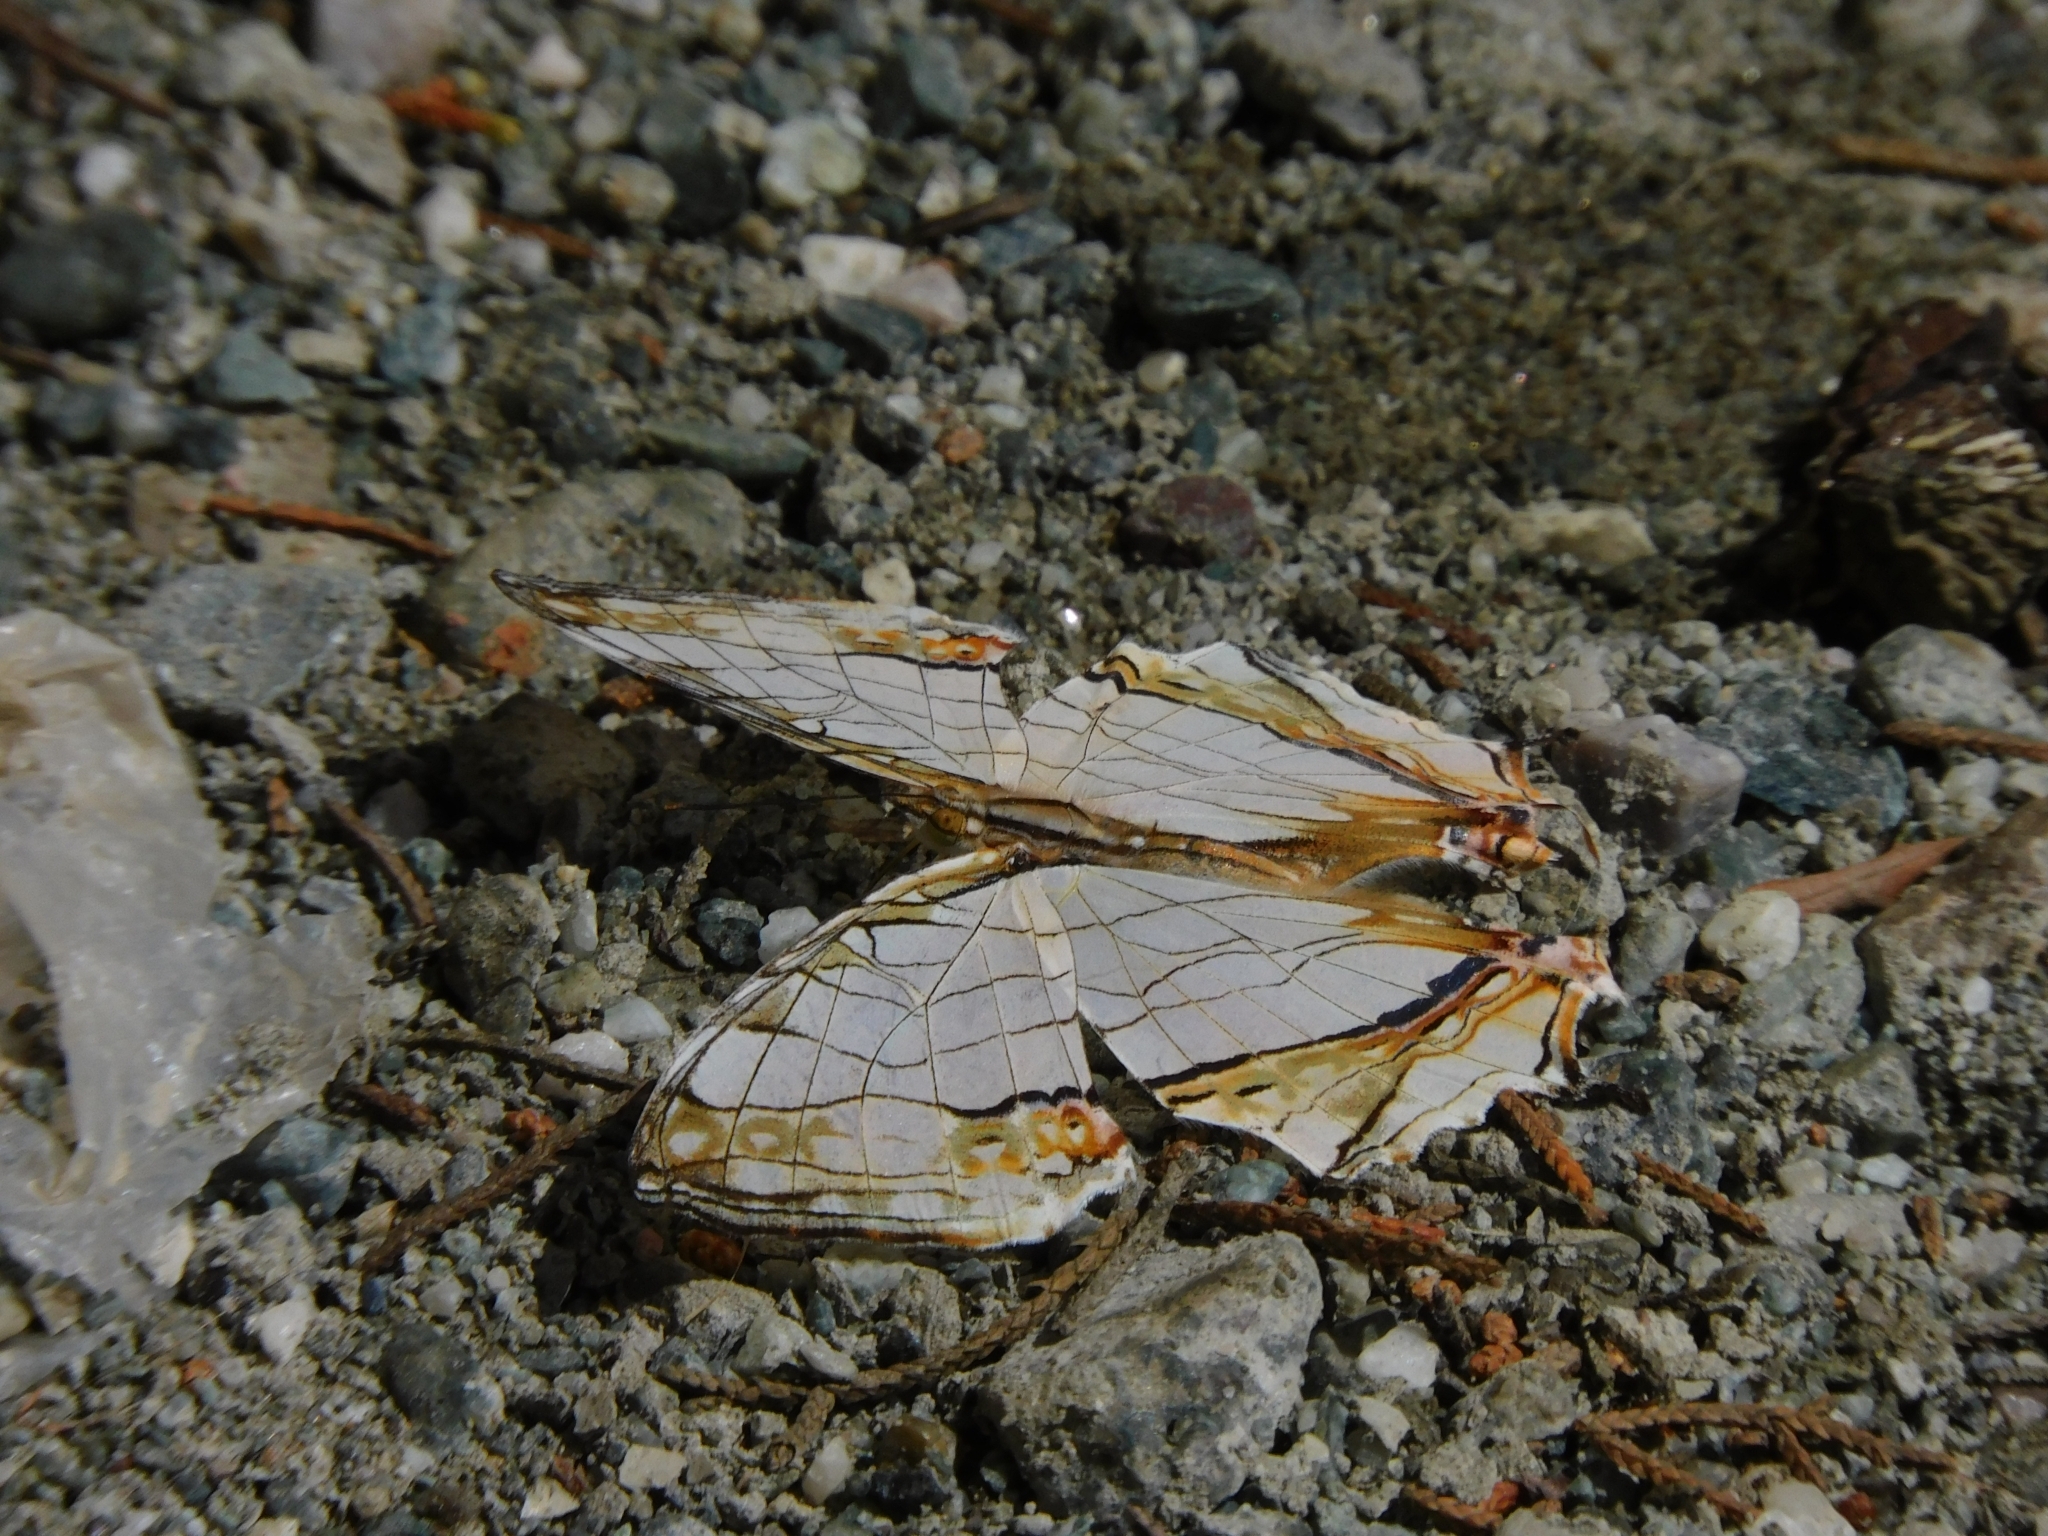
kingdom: Animalia
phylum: Arthropoda
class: Insecta
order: Lepidoptera
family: Nymphalidae
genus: Cyrestis
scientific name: Cyrestis thyodamas
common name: Common mapwing
